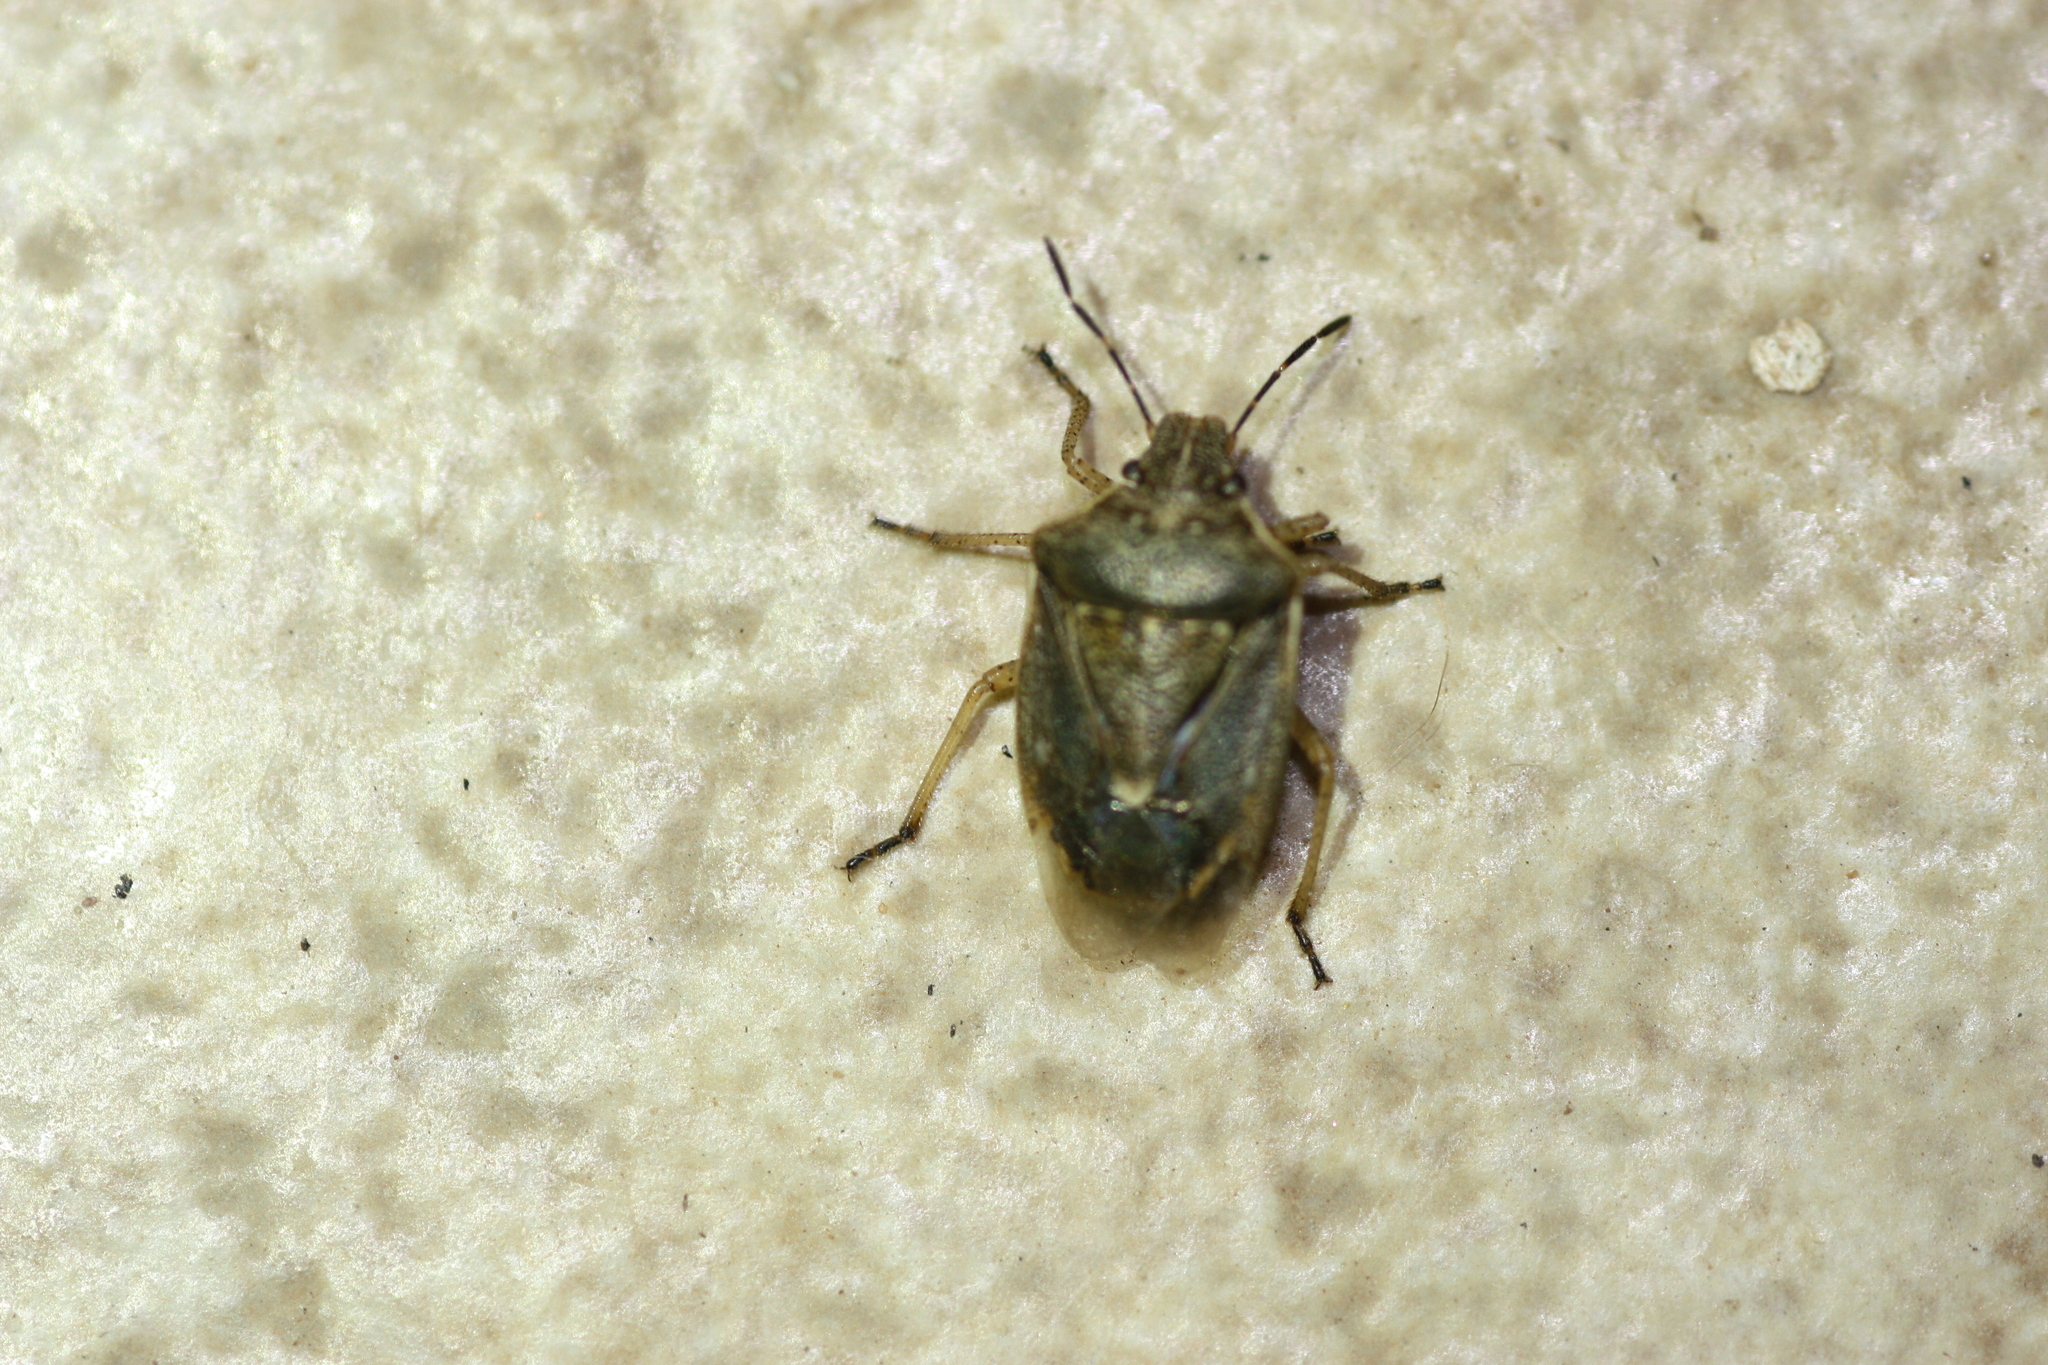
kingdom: Animalia
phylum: Arthropoda
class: Insecta
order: Hemiptera
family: Pentatomidae
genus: Moromorpha
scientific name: Moromorpha tetra
